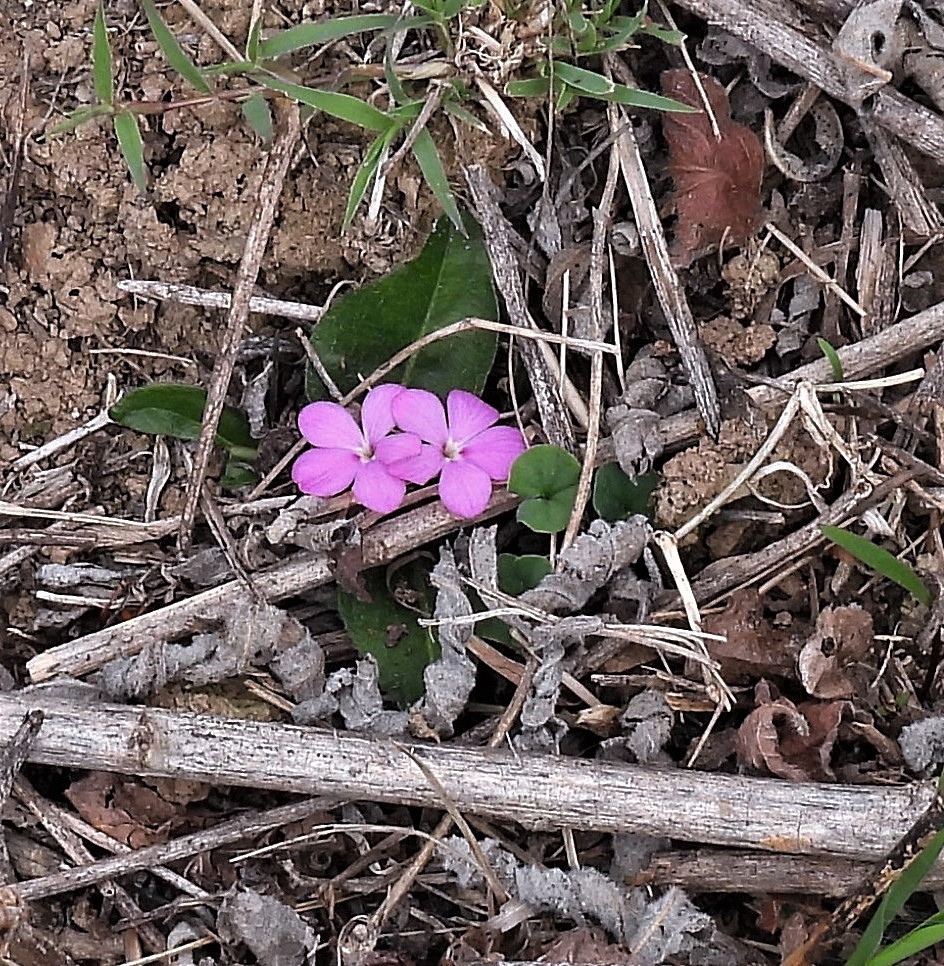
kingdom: Plantae
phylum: Tracheophyta
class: Magnoliopsida
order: Lamiales
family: Acanthaceae
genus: Stenandrium
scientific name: Stenandrium dulce
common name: Pinklet
